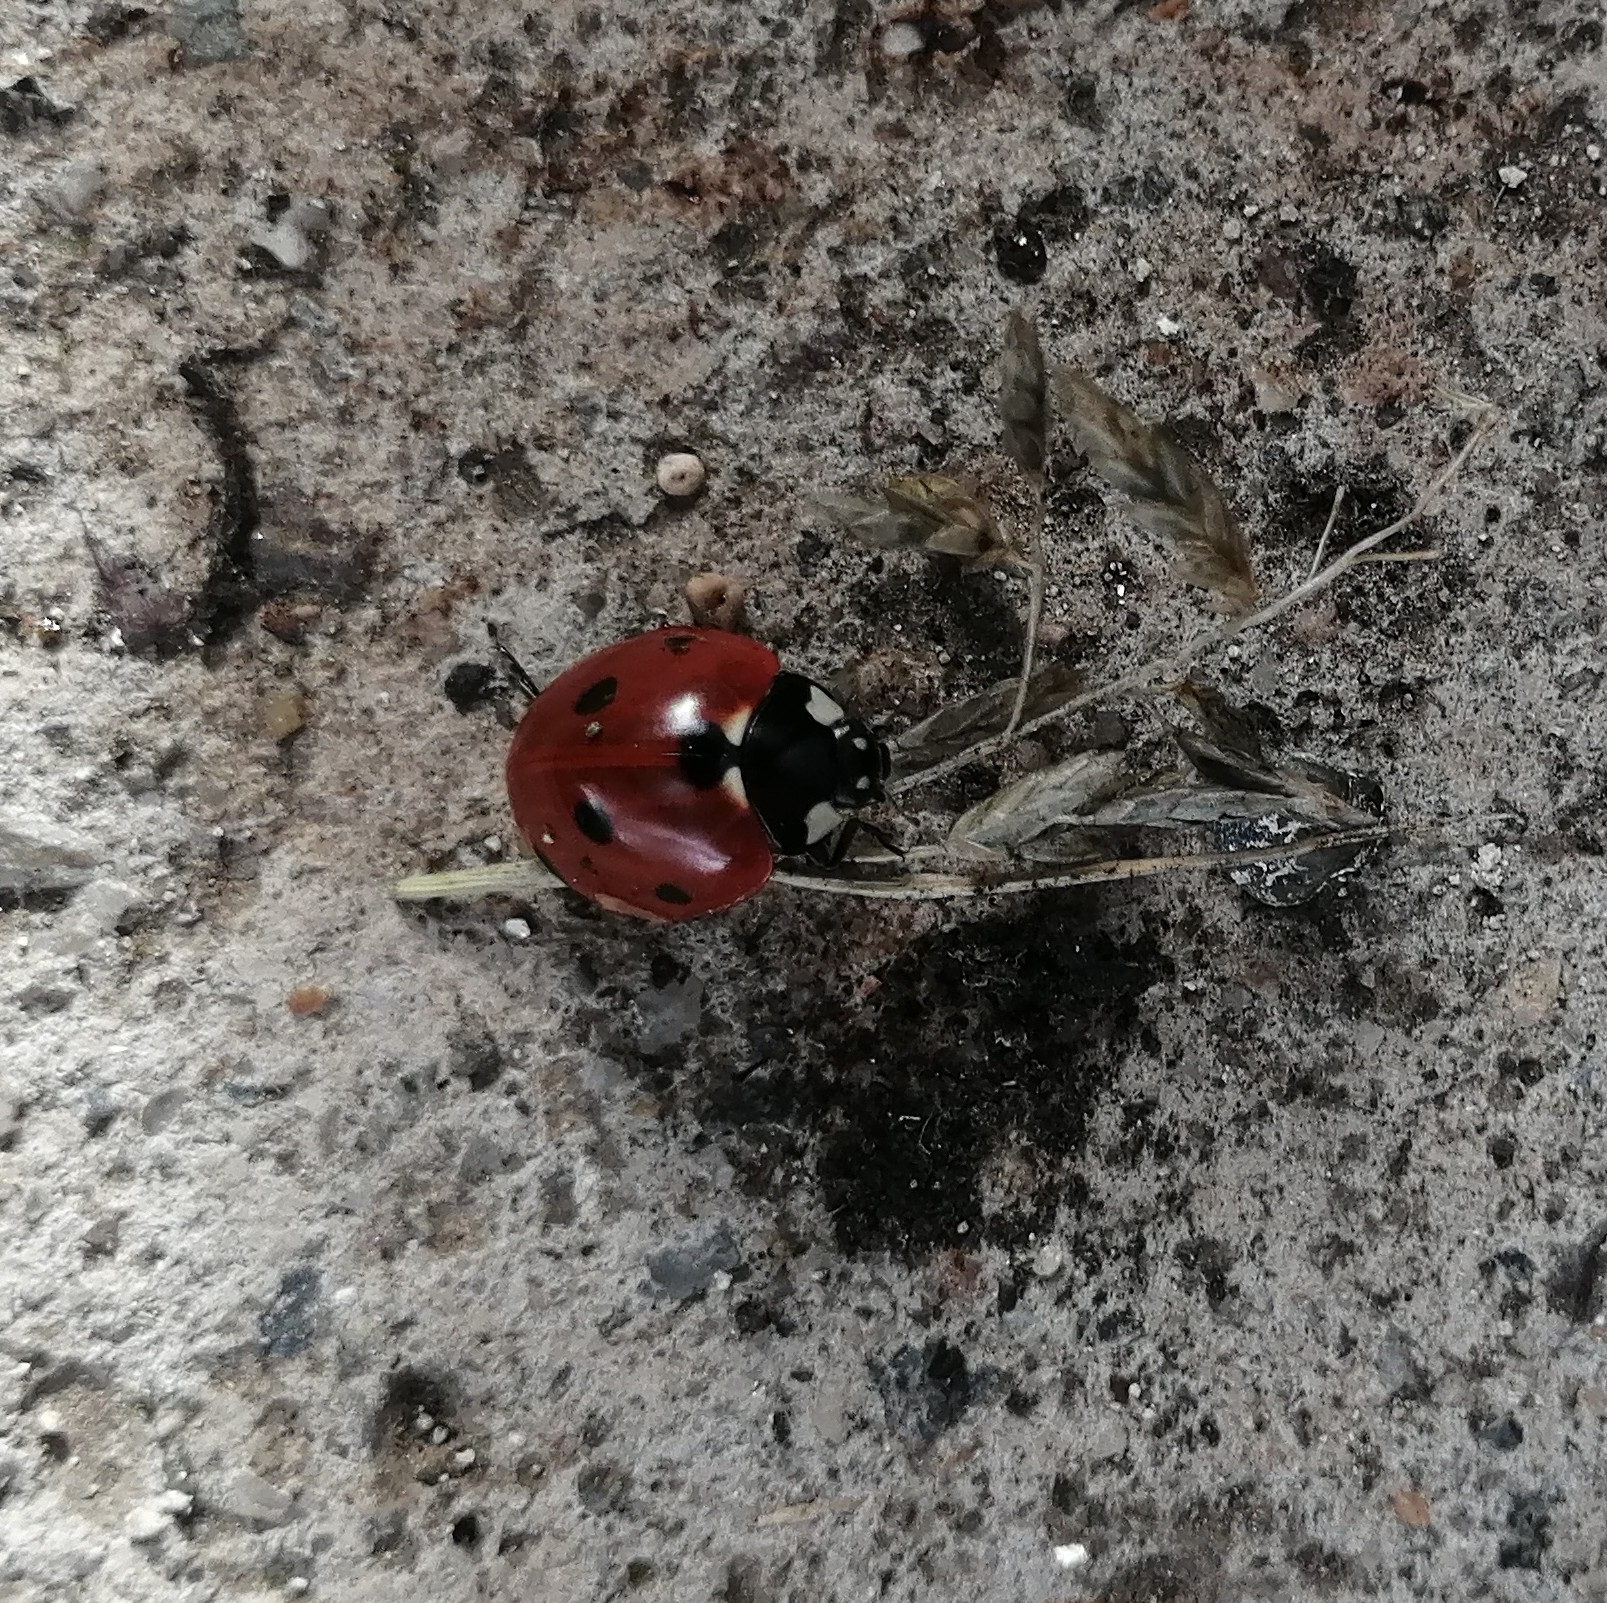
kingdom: Animalia
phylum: Arthropoda
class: Insecta
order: Coleoptera
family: Coccinellidae
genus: Coccinella
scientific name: Coccinella septempunctata
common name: Sevenspotted lady beetle
